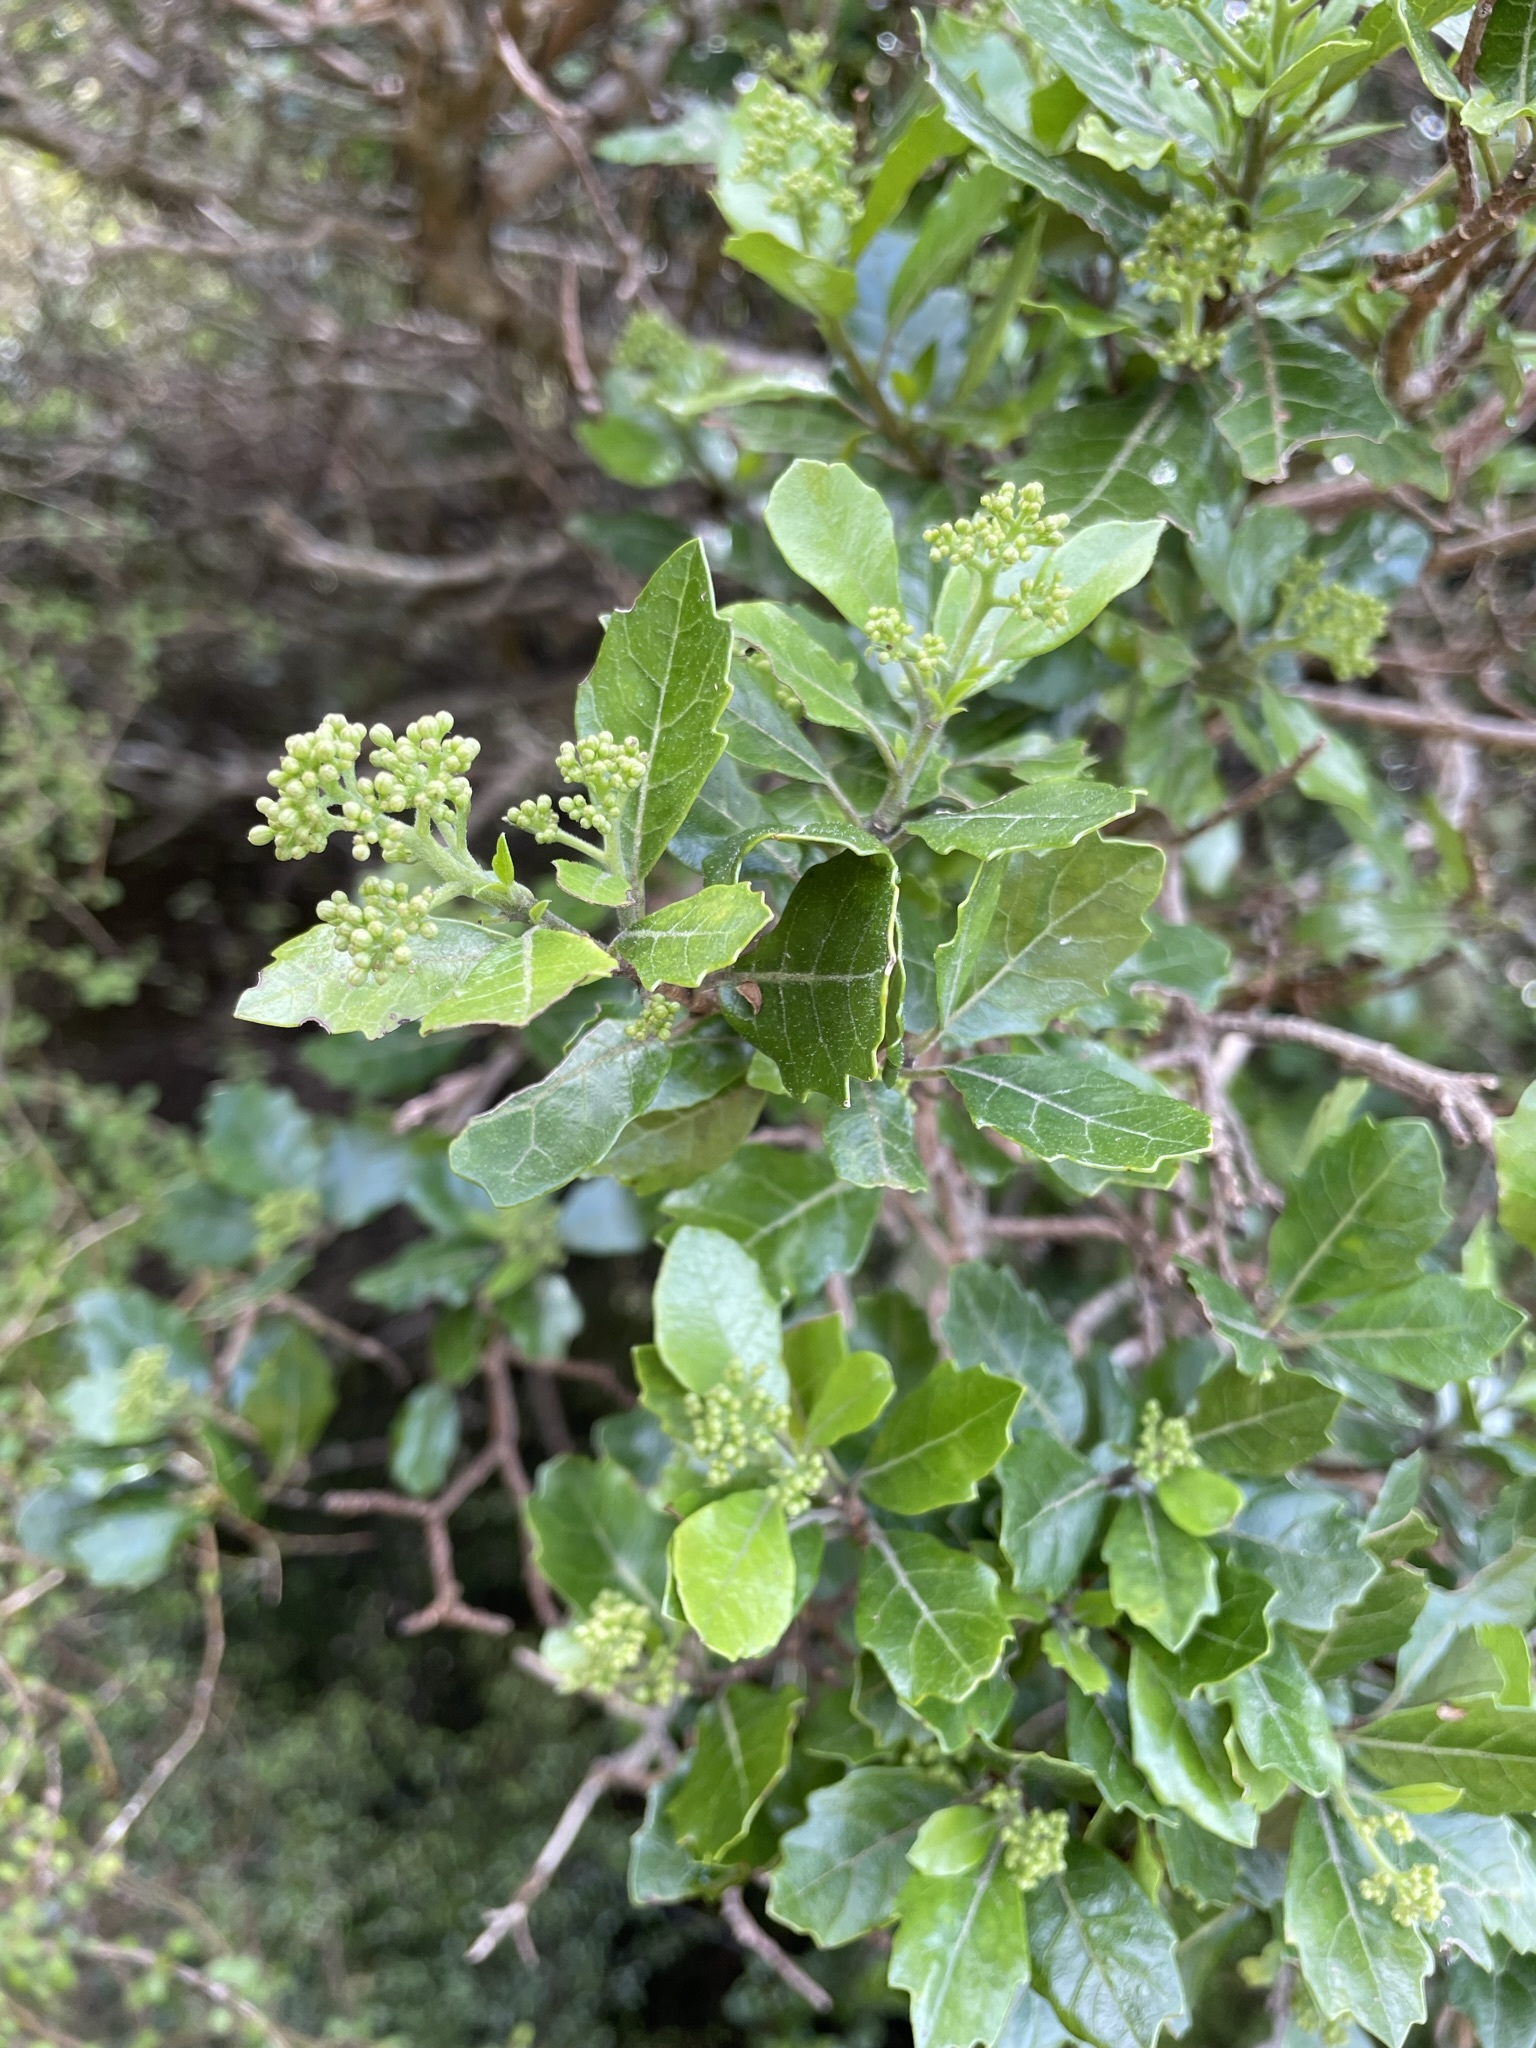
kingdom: Plantae
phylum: Tracheophyta
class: Magnoliopsida
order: Apiales
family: Pennantiaceae
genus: Pennantia
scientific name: Pennantia corymbosa
